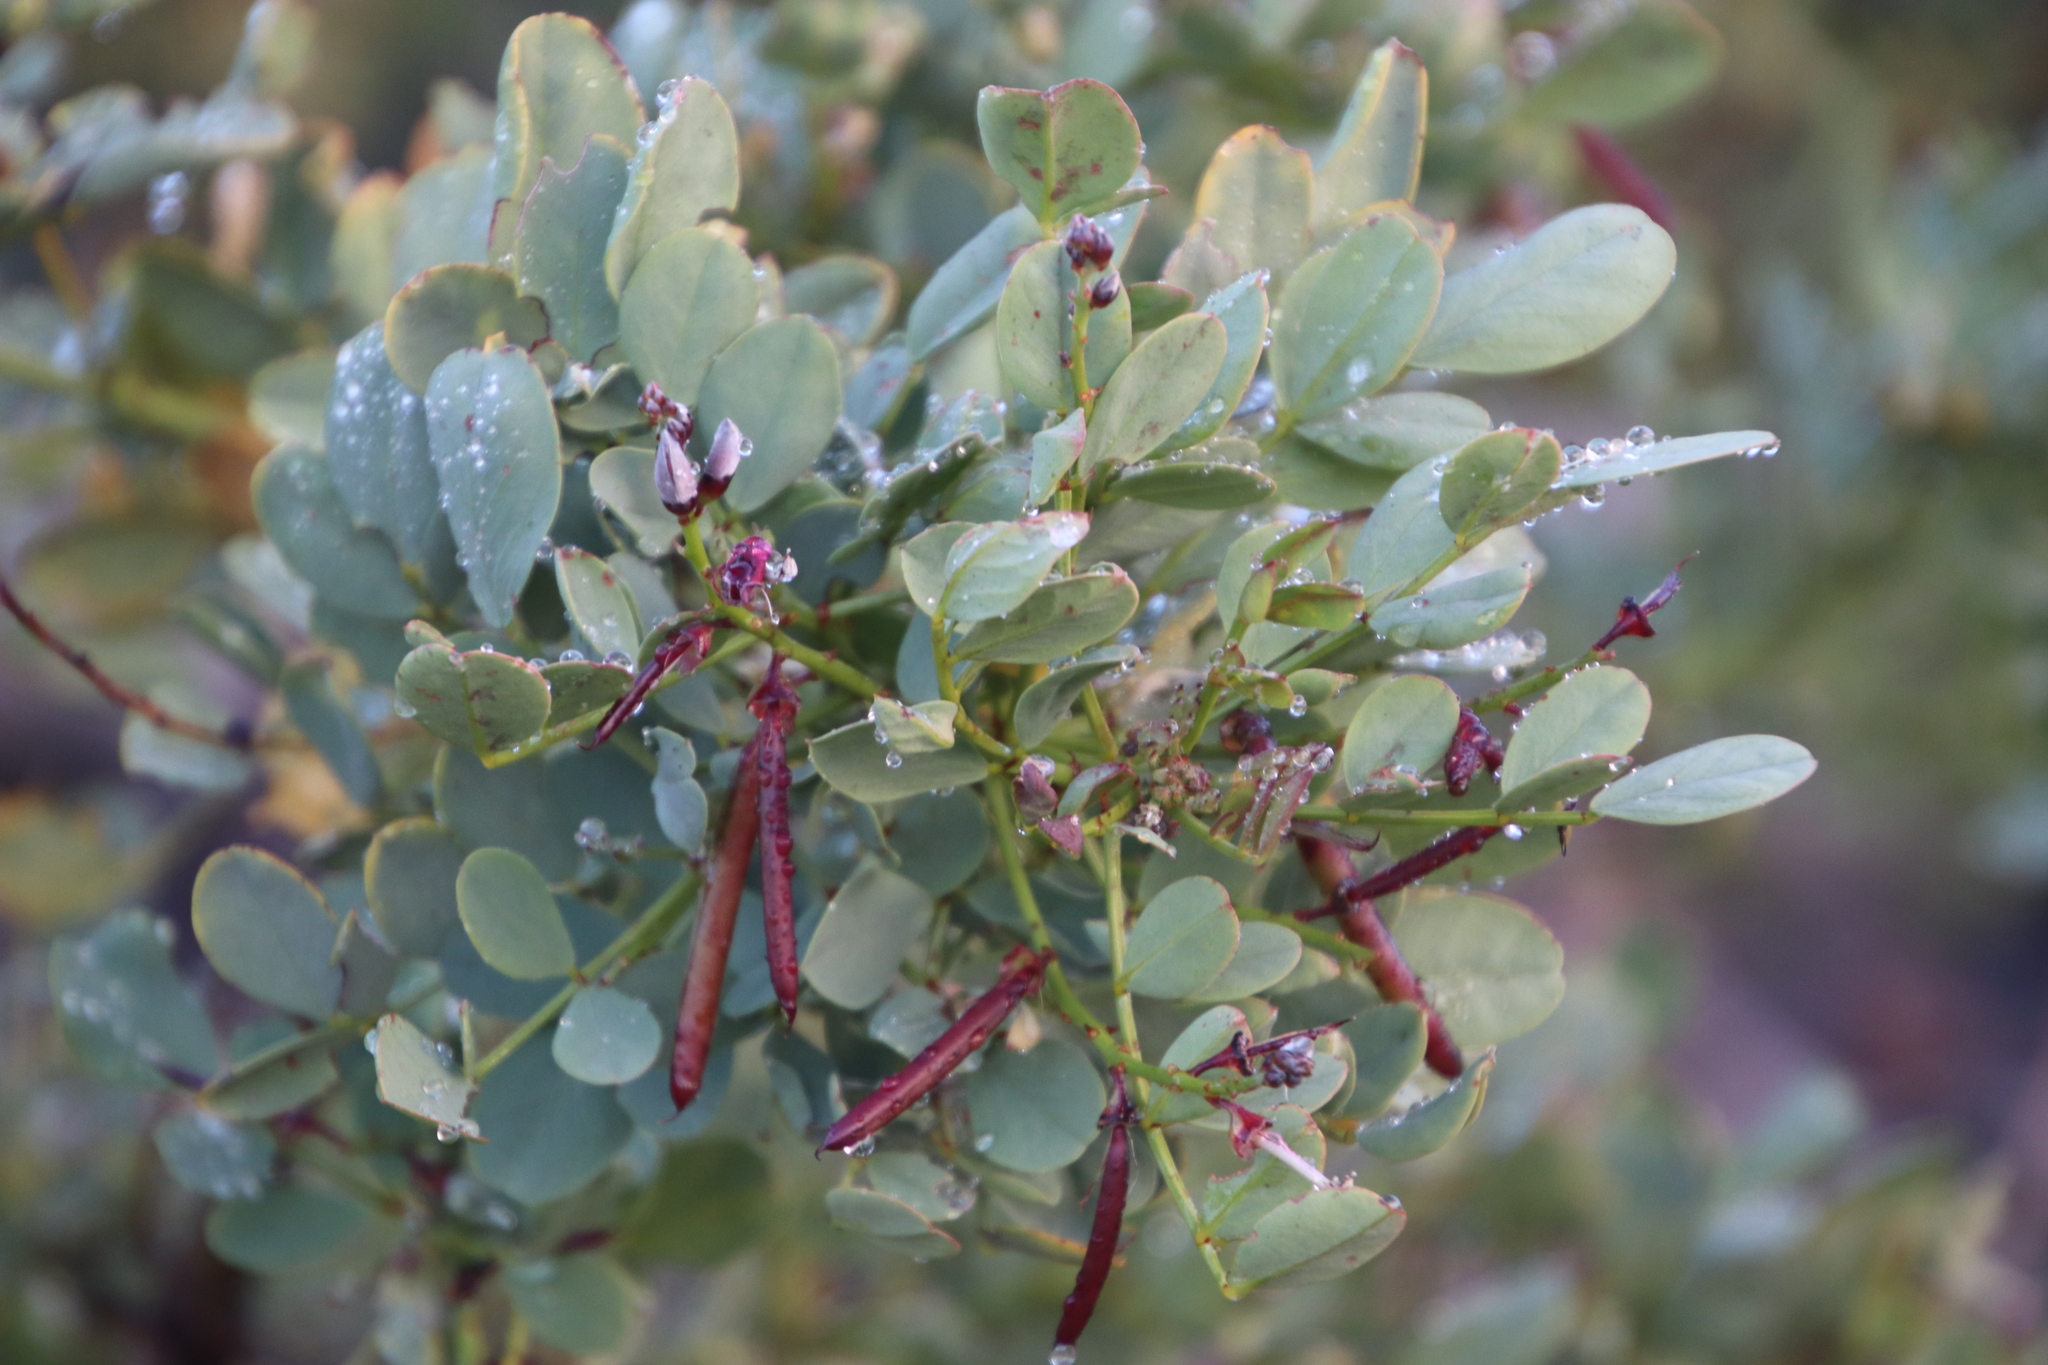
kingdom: Plantae
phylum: Tracheophyta
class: Magnoliopsida
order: Fabales
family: Fabaceae
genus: Indigofera
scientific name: Indigofera frutescens
